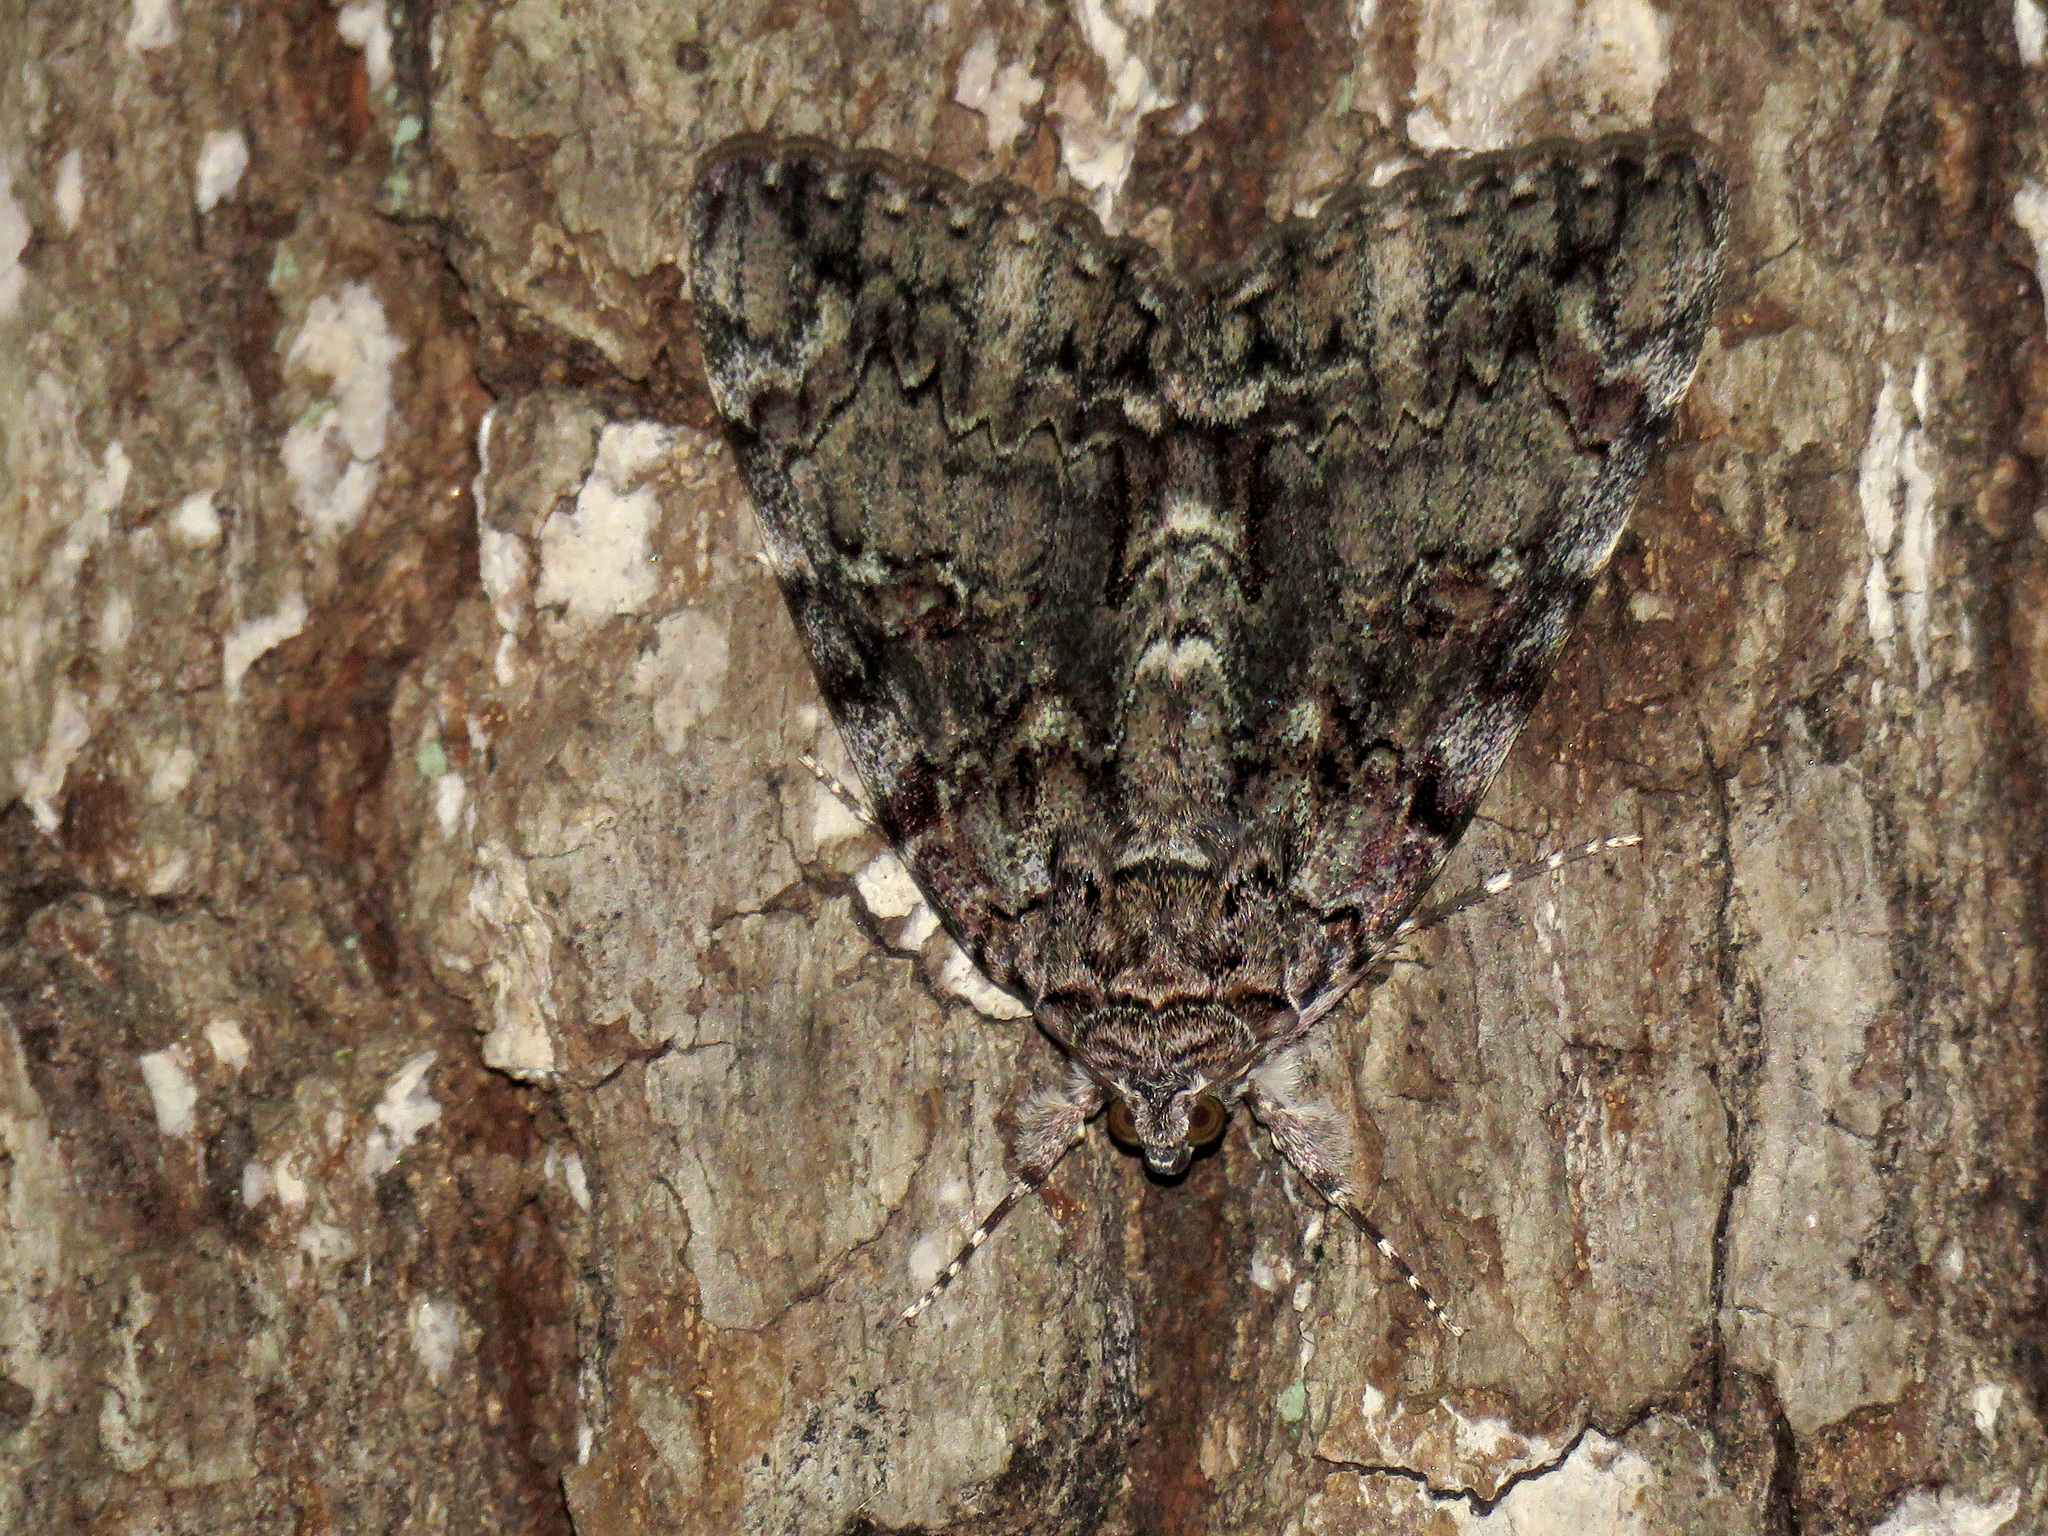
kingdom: Animalia
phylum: Arthropoda
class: Insecta
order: Lepidoptera
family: Erebidae
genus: Catocala
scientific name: Catocala lacrymosa
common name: Tearful underwing
